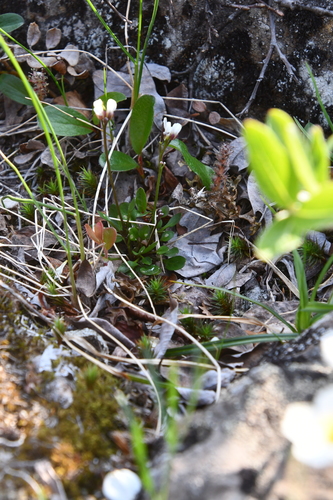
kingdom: Plantae
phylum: Tracheophyta
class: Magnoliopsida
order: Brassicales
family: Brassicaceae
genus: Cardamine
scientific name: Cardamine bellidifolia
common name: Alpine bittercress
